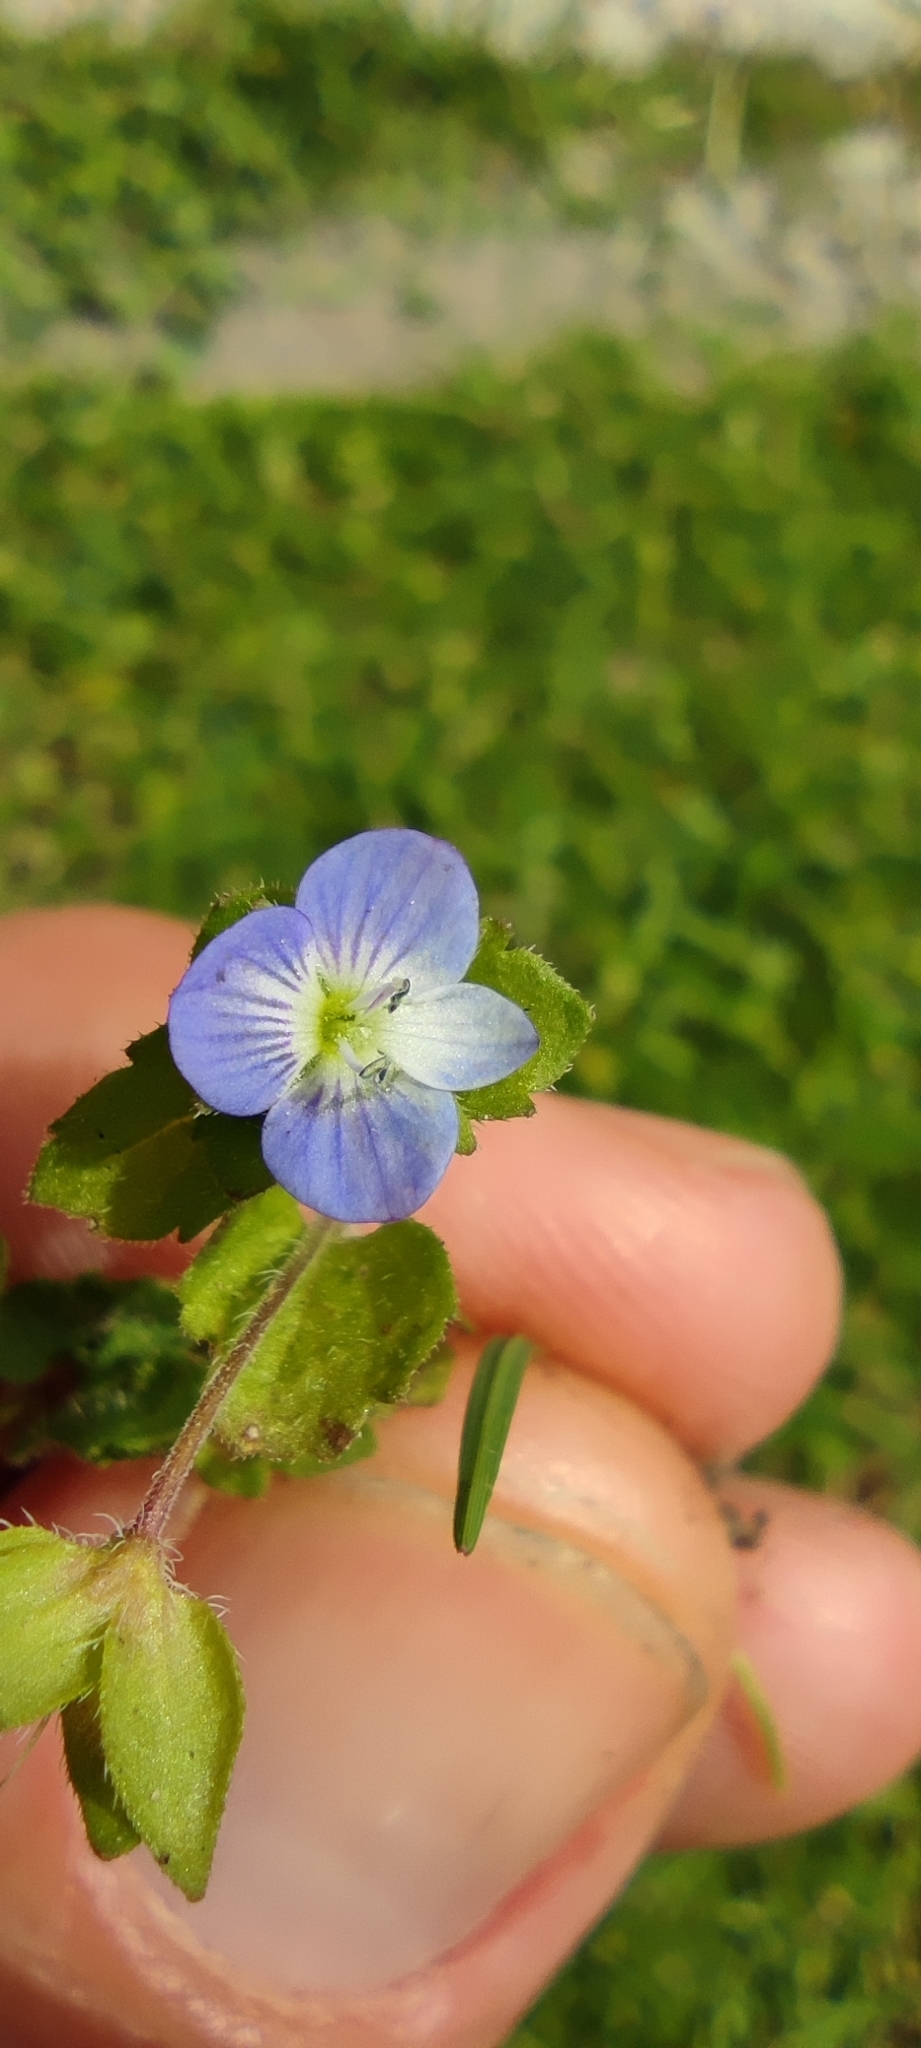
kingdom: Plantae
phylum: Tracheophyta
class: Magnoliopsida
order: Lamiales
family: Plantaginaceae
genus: Veronica
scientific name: Veronica persica
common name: Common field-speedwell
